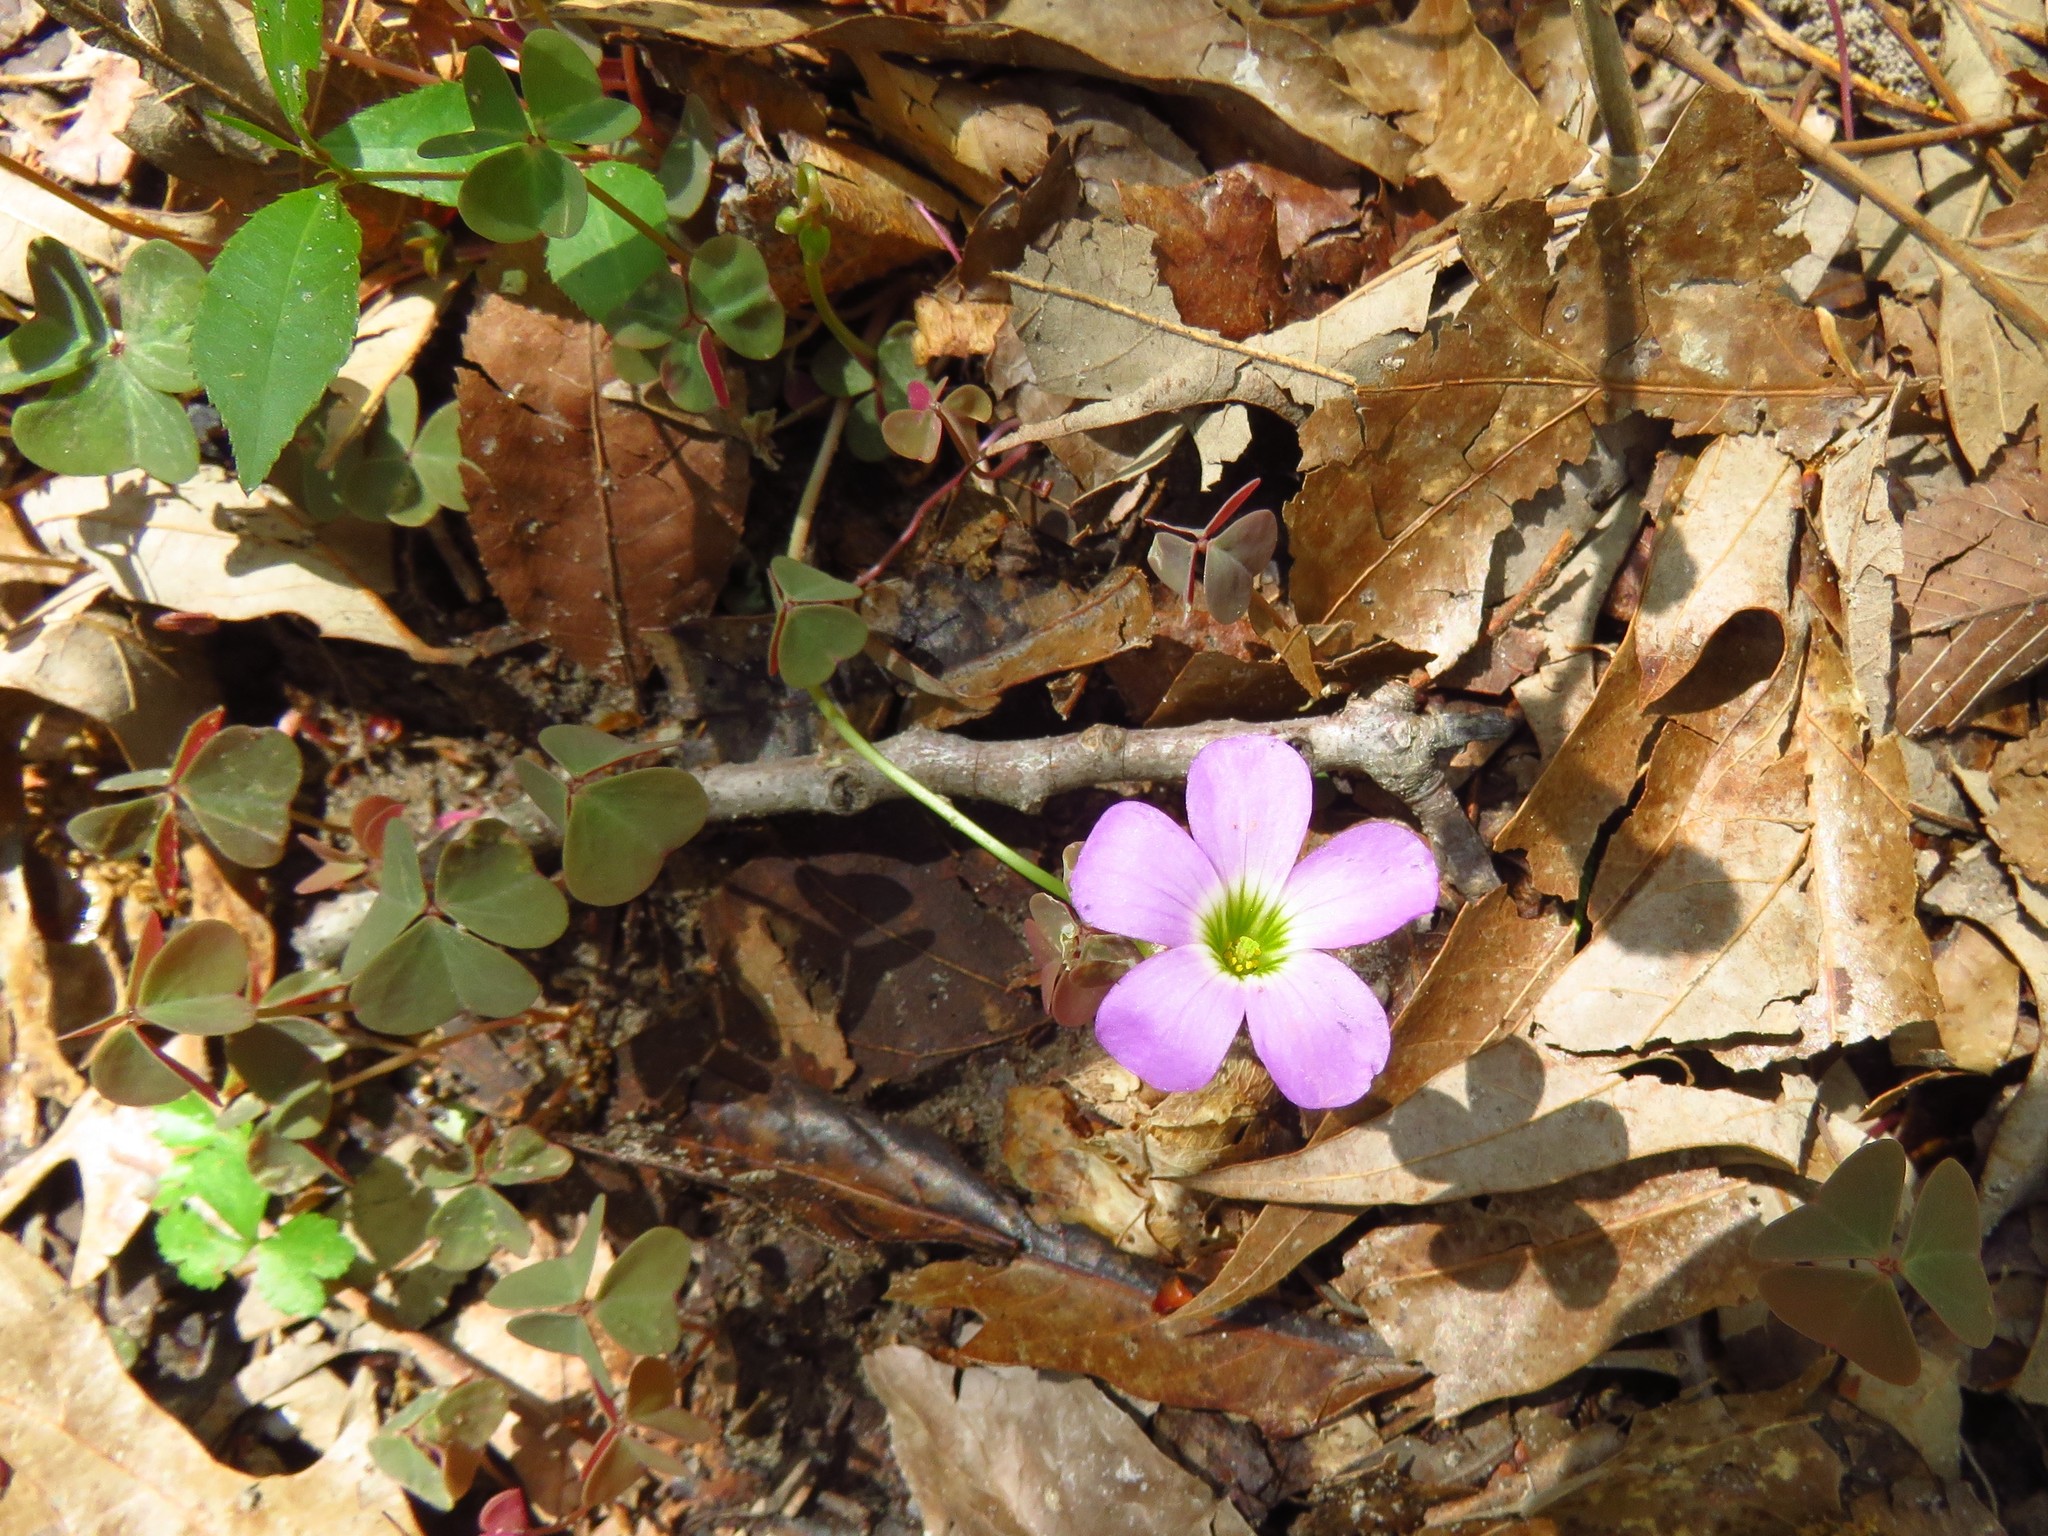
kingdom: Plantae
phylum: Tracheophyta
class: Magnoliopsida
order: Oxalidales
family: Oxalidaceae
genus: Oxalis
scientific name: Oxalis violacea
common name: Violet wood-sorrel
